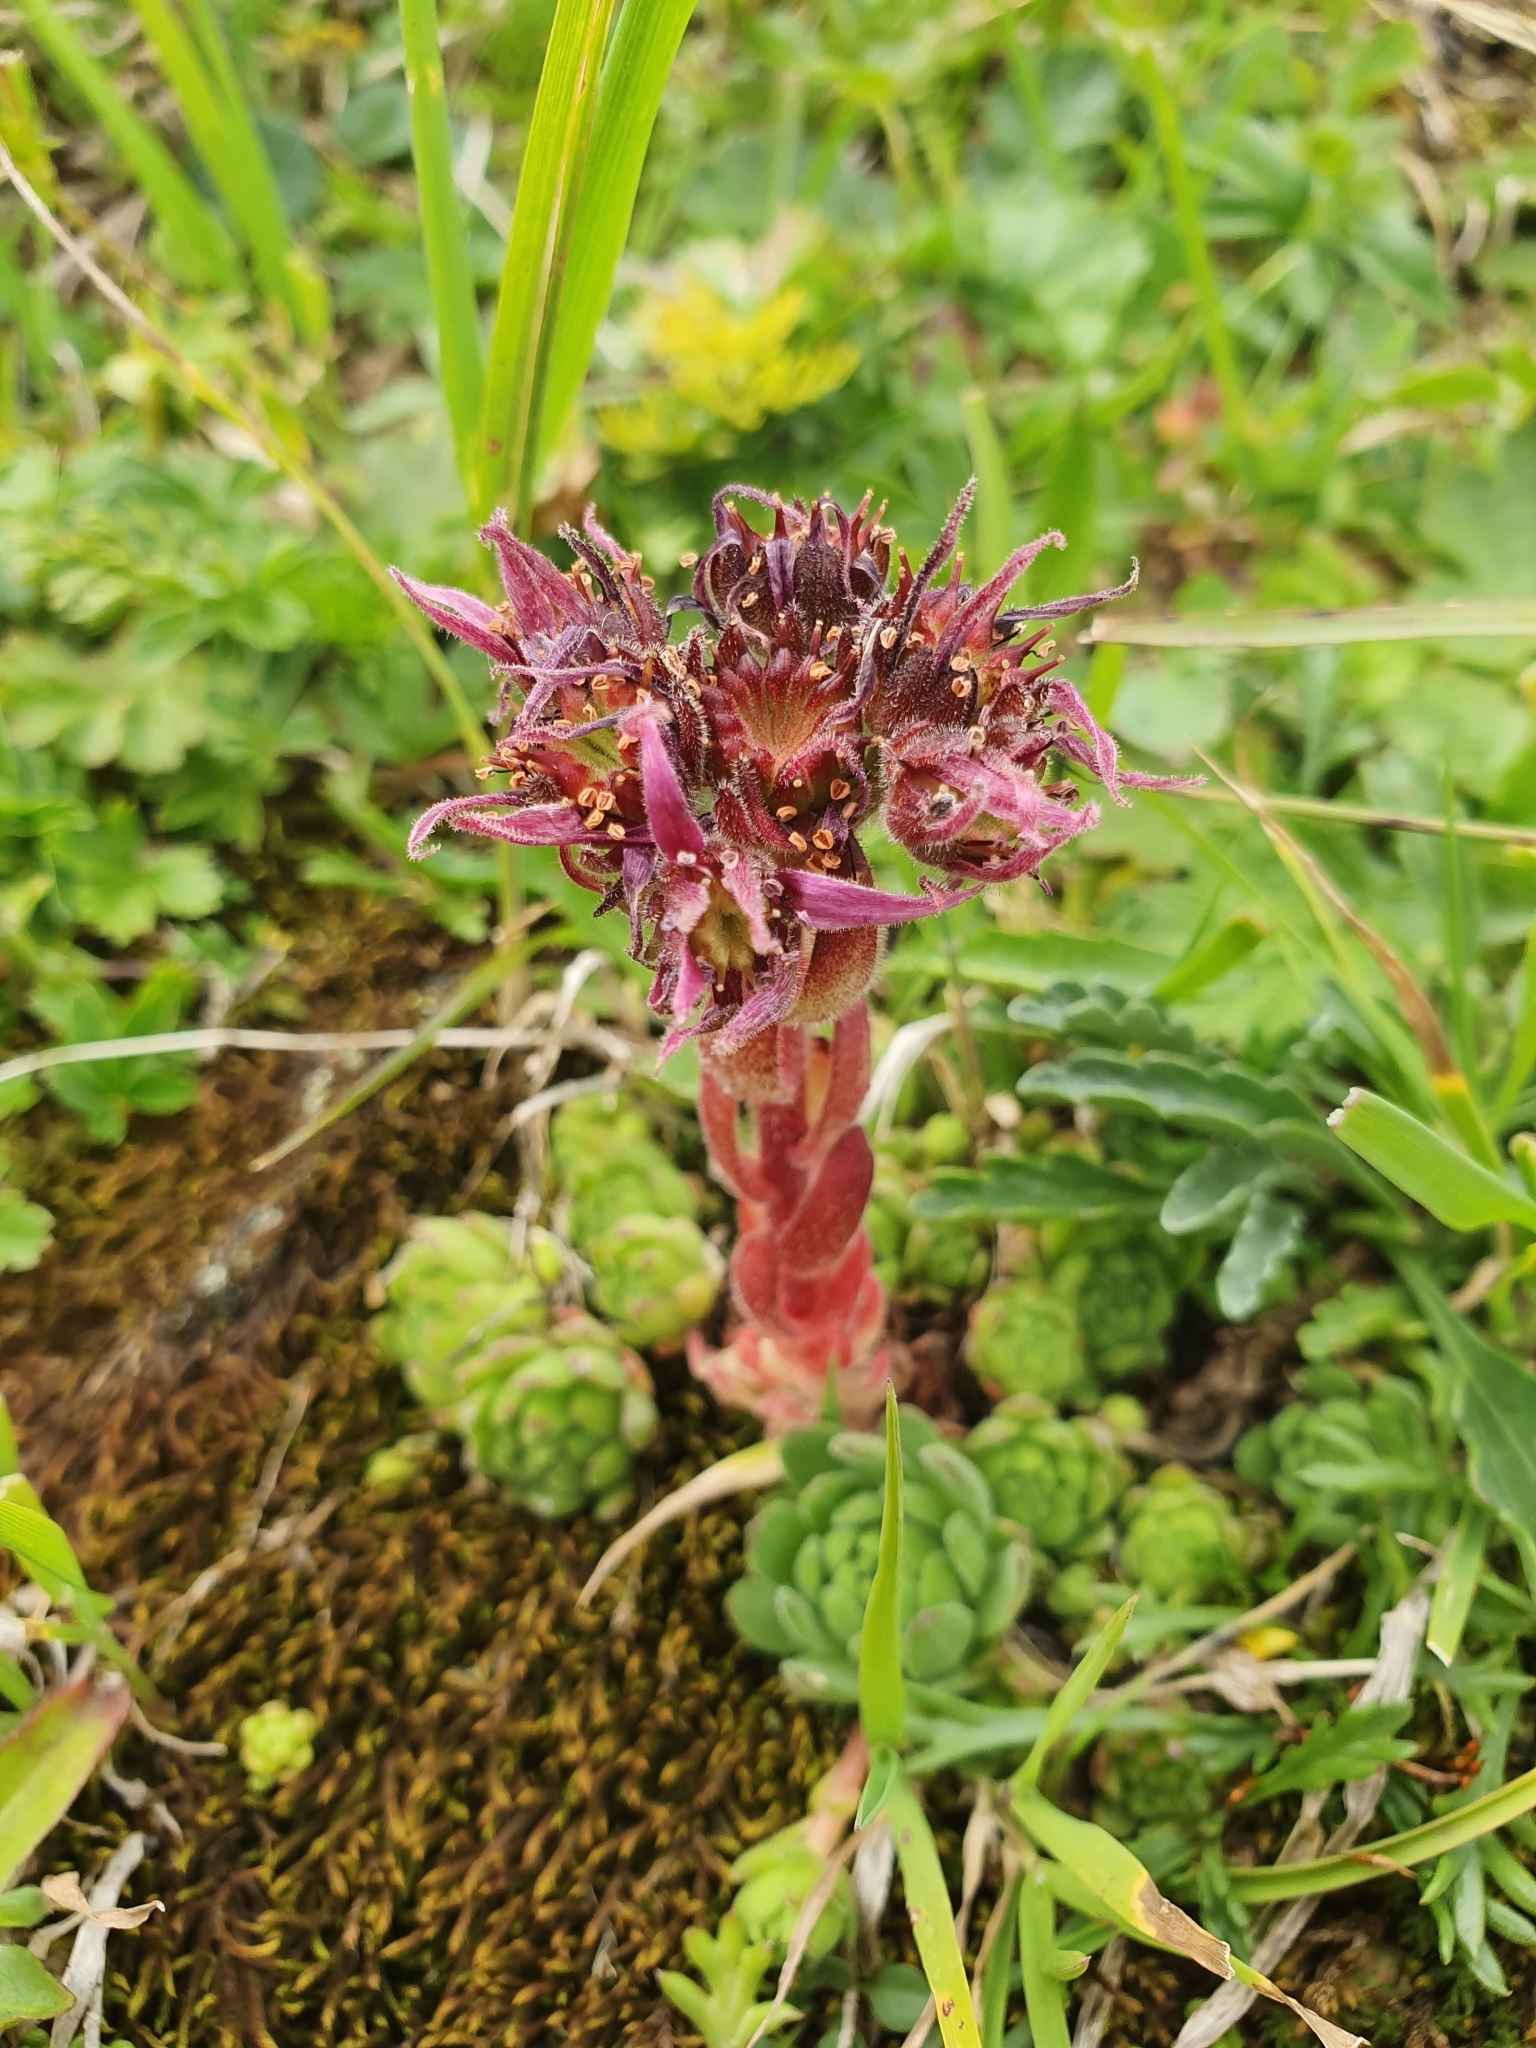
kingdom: Plantae
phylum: Tracheophyta
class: Magnoliopsida
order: Saxifragales
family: Crassulaceae
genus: Sempervivum
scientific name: Sempervivum montanum
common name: Mountain house-leek
